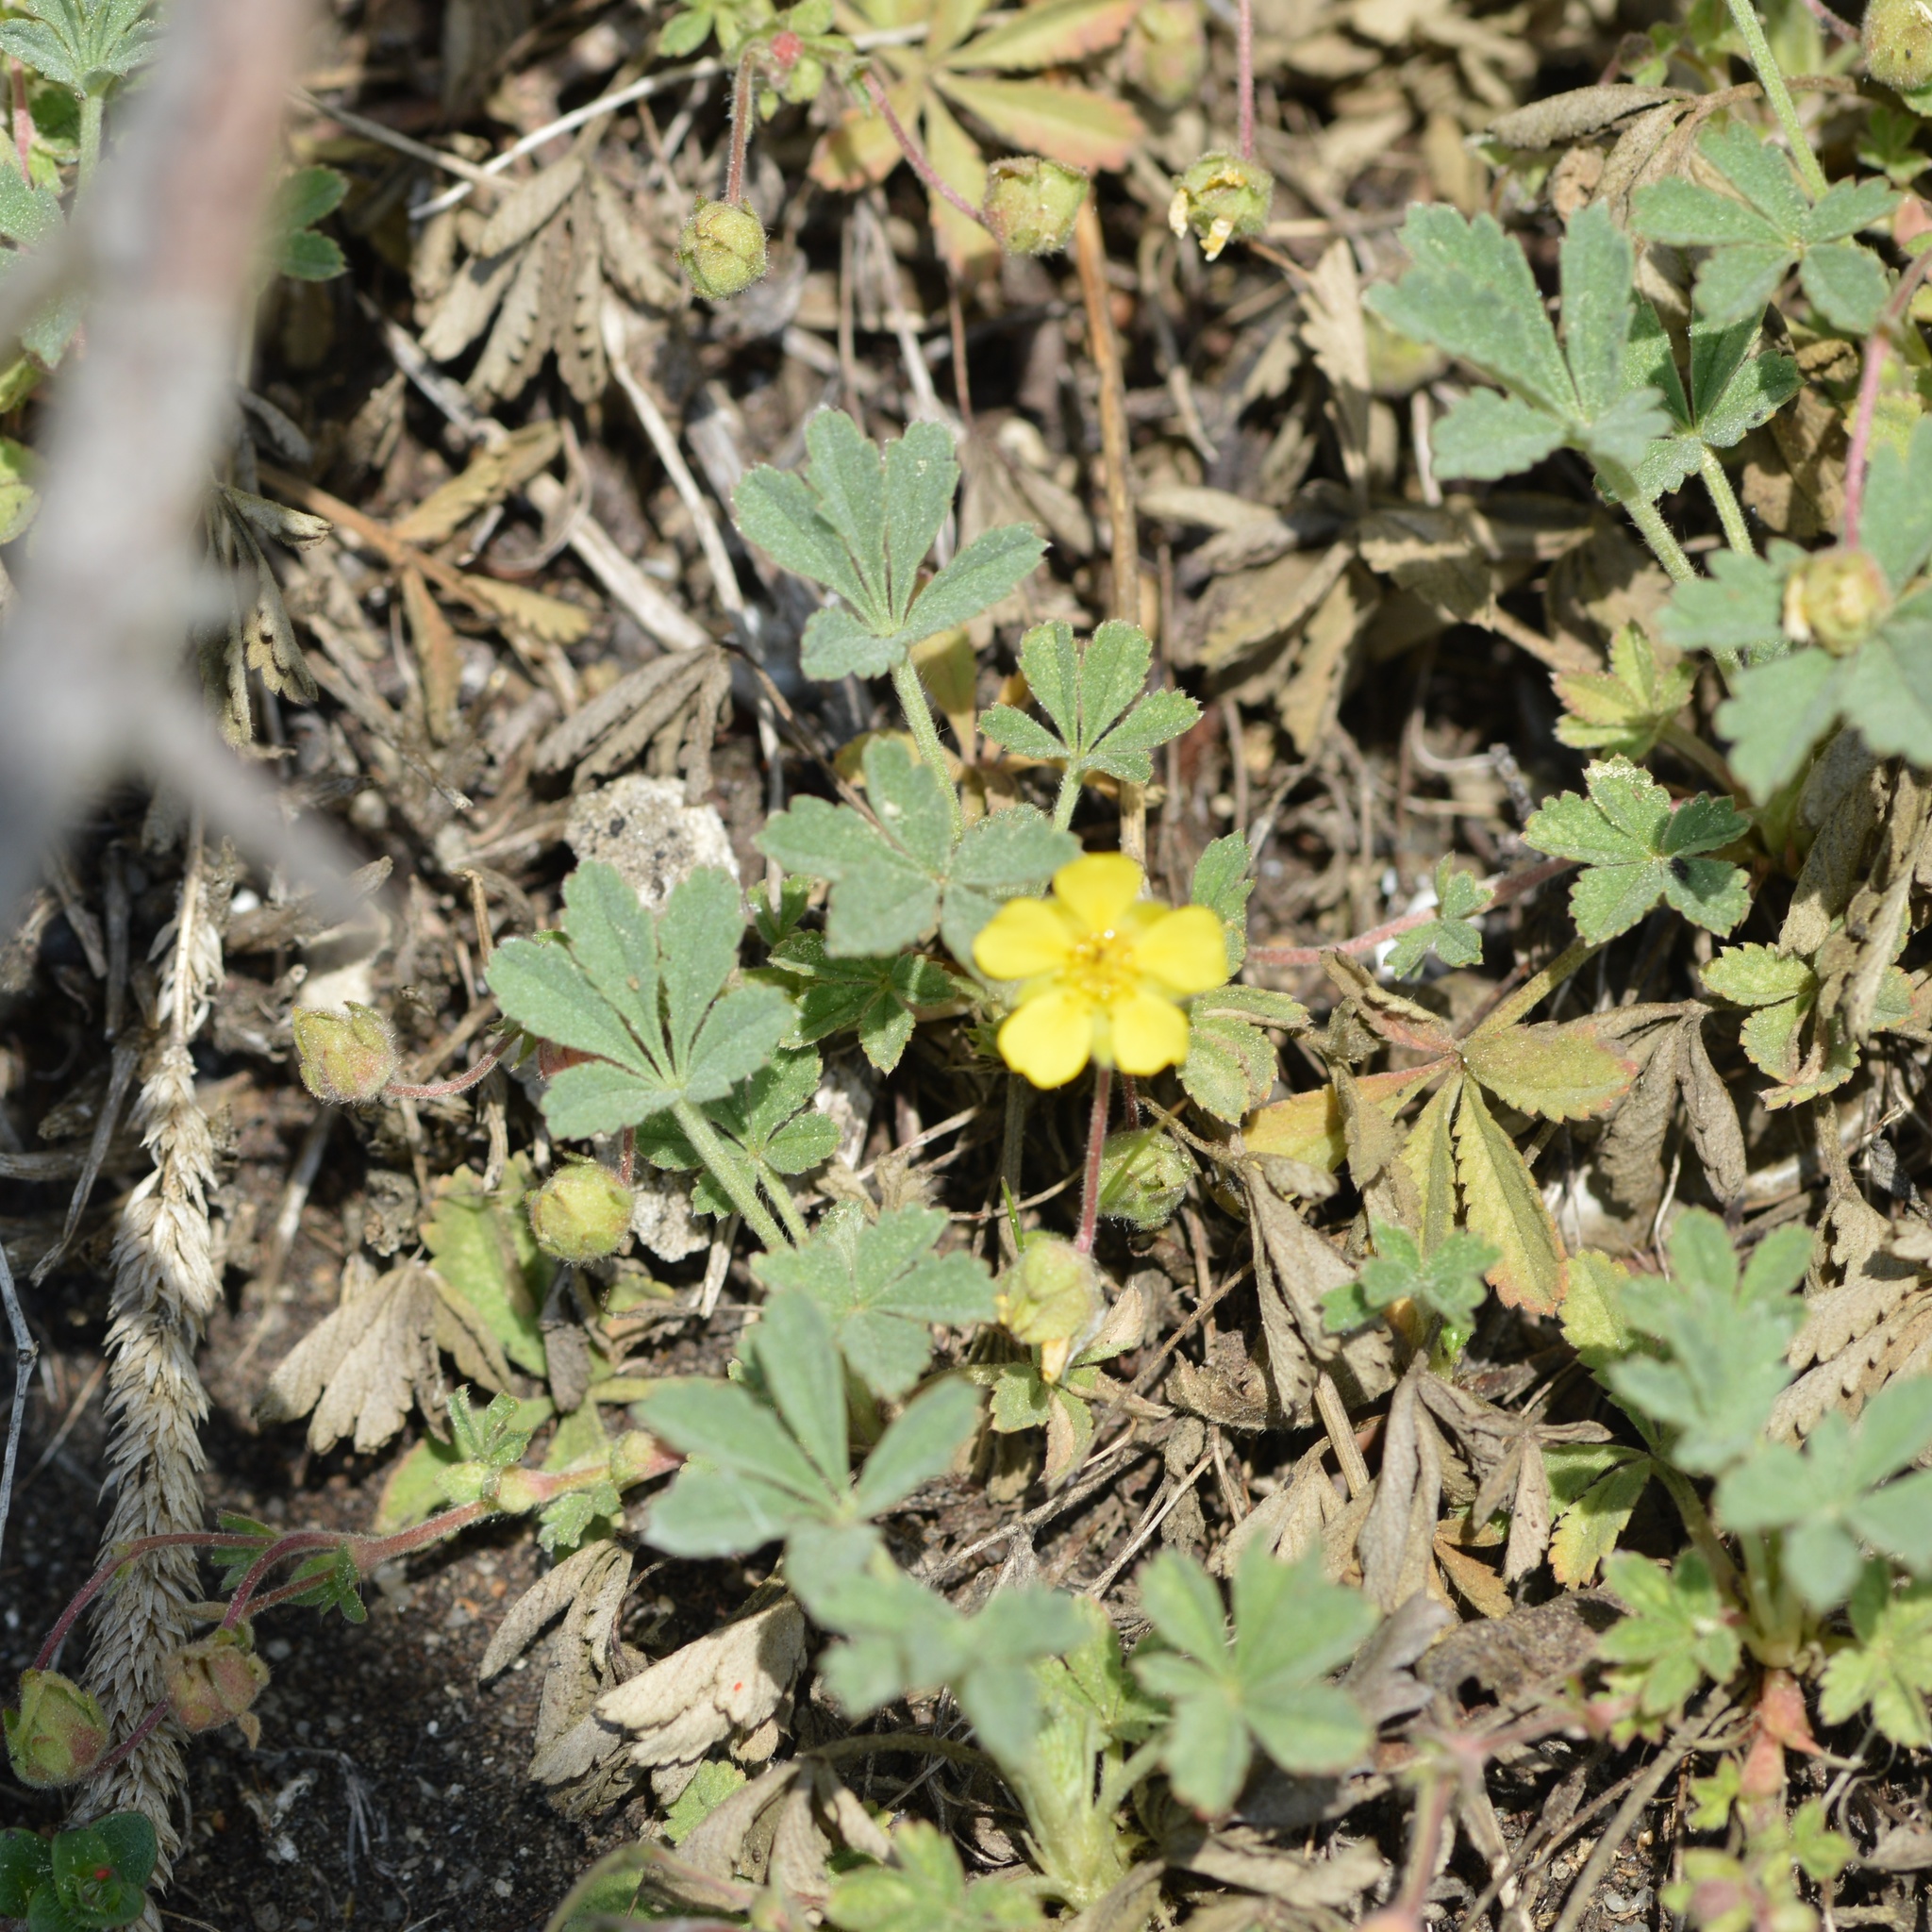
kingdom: Plantae
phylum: Tracheophyta
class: Magnoliopsida
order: Rosales
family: Rosaceae
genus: Potentilla
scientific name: Potentilla incana
